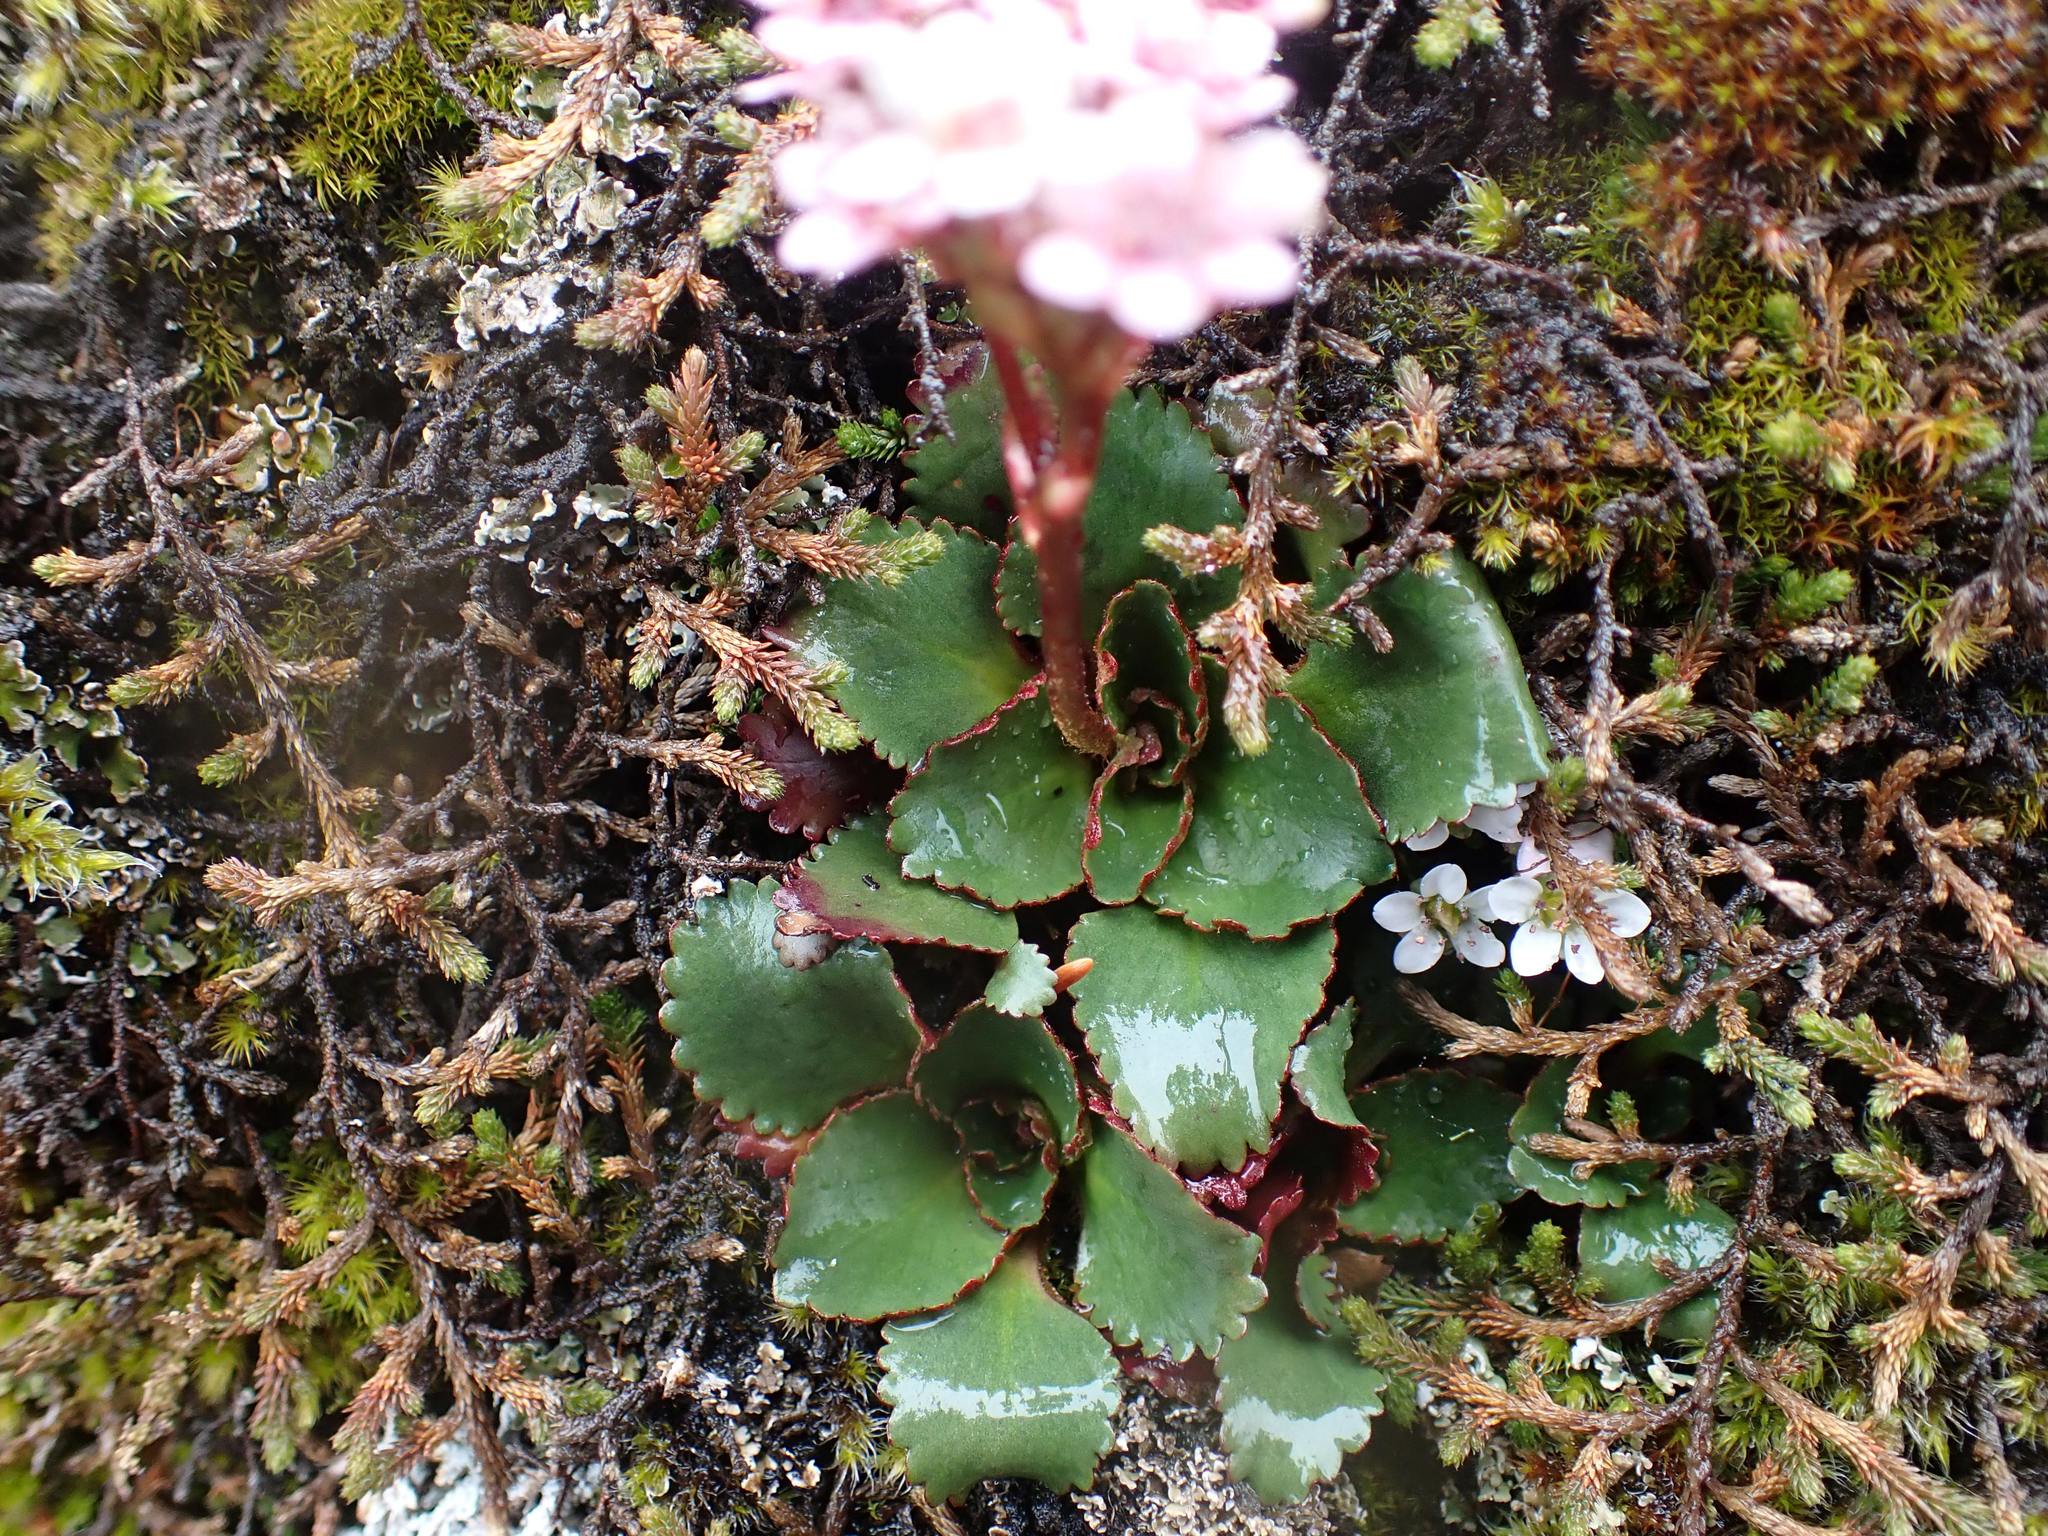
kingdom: Plantae
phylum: Tracheophyta
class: Magnoliopsida
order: Saxifragales
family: Saxifragaceae
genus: Micranthes
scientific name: Micranthes rufidula
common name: Rustyhair saxifrage
